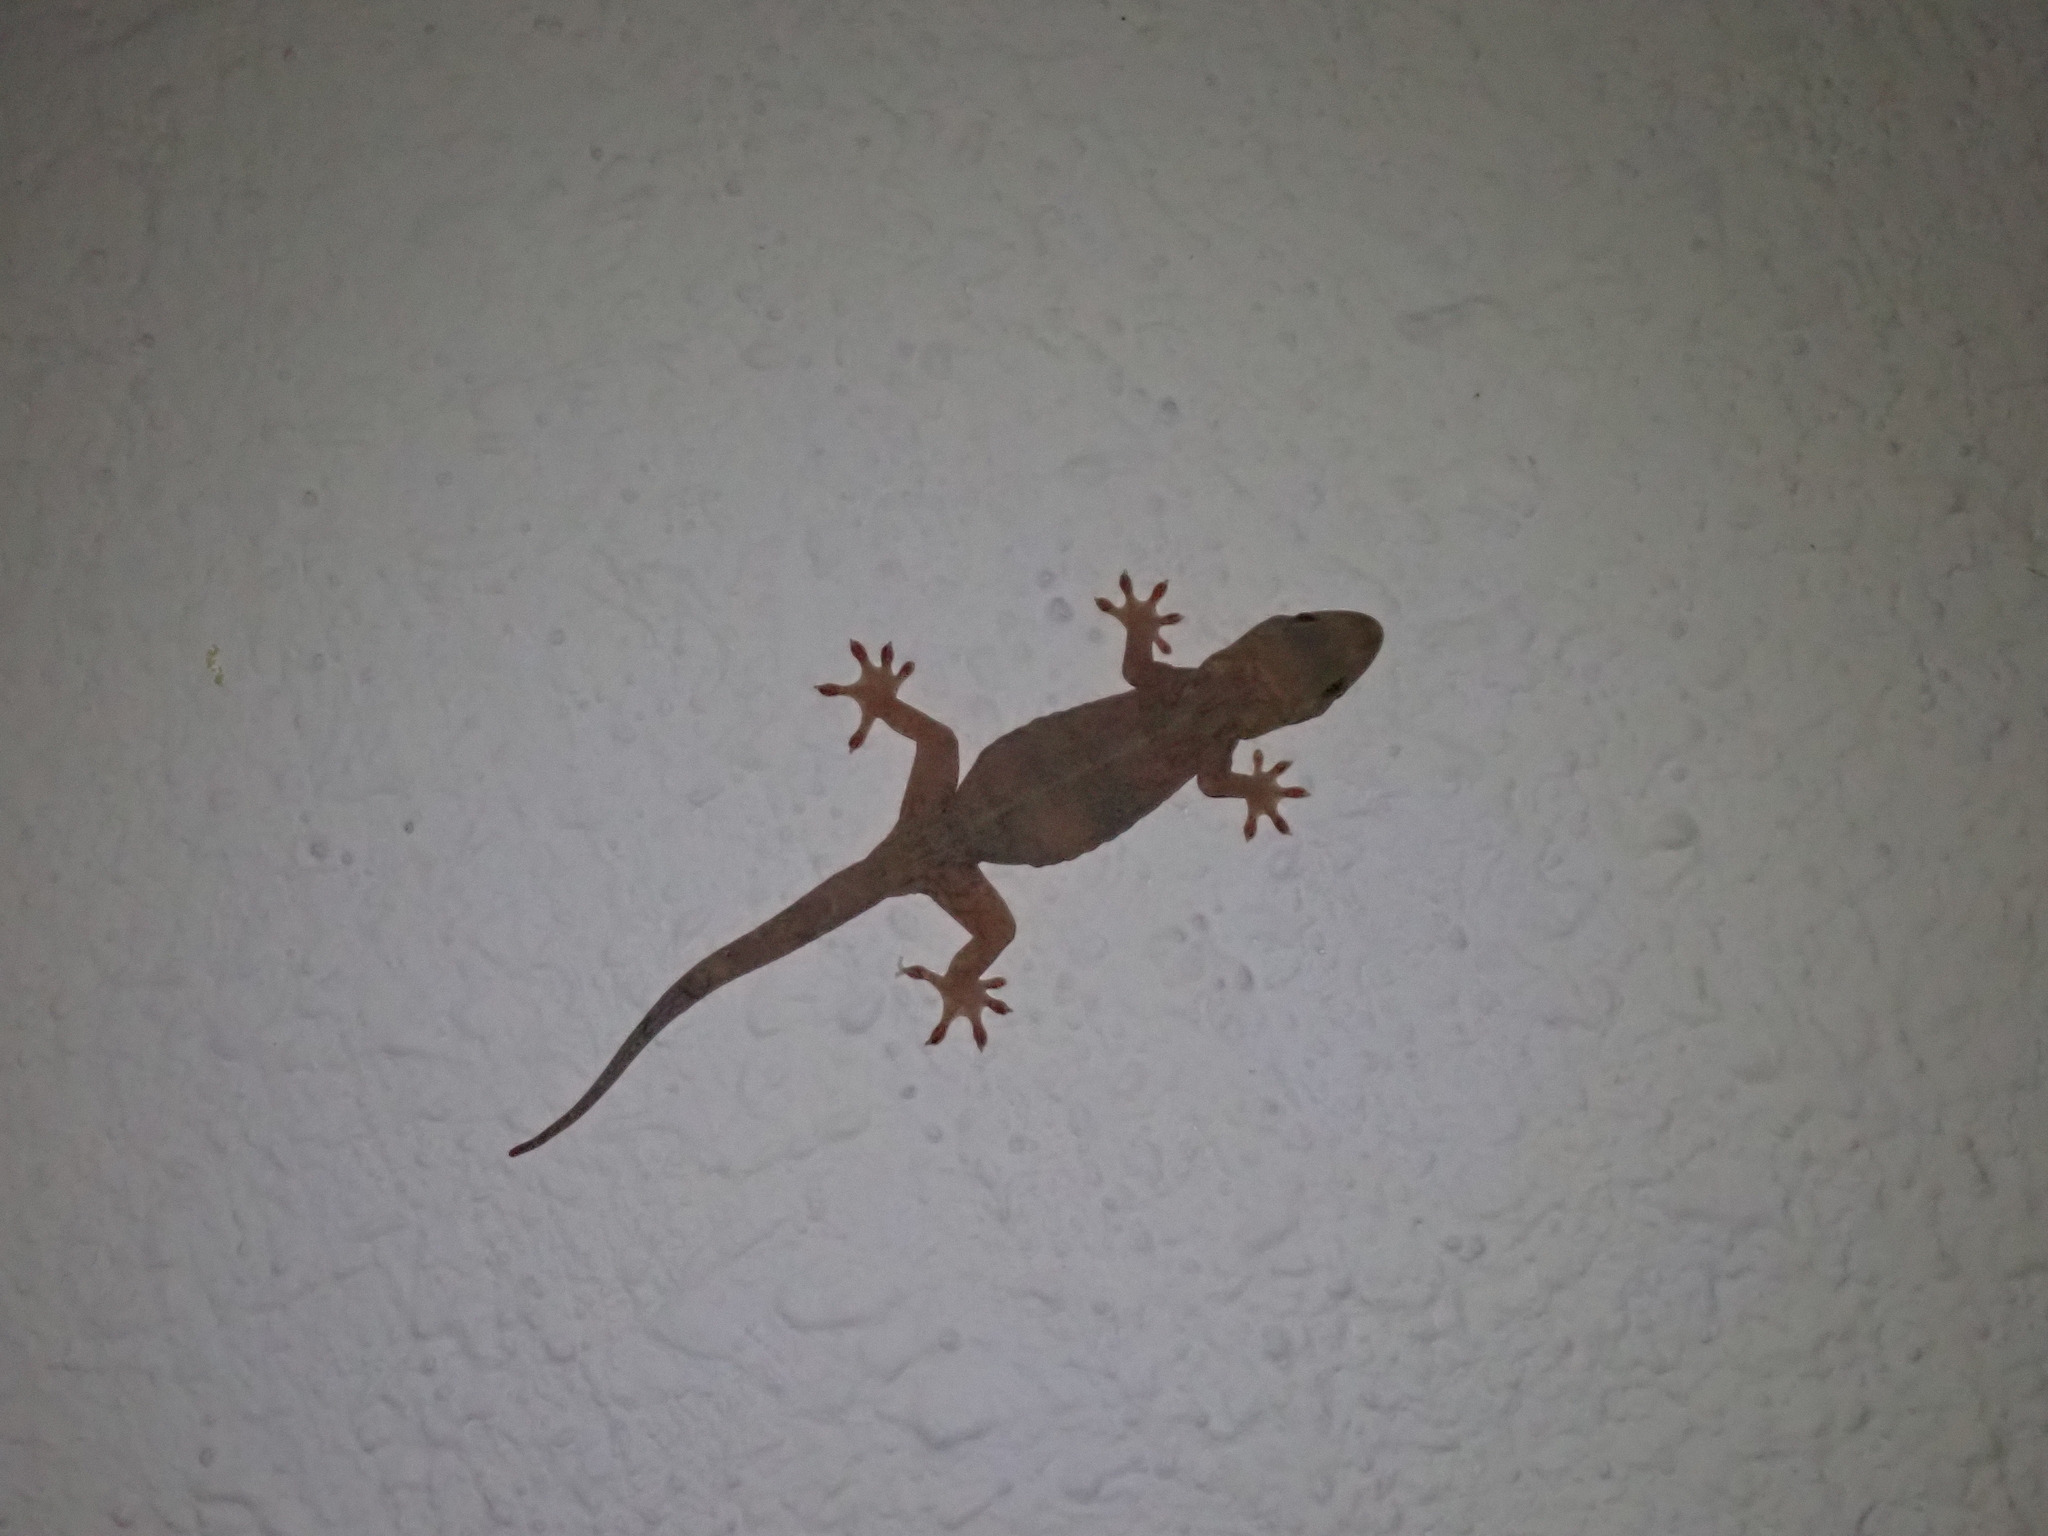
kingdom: Animalia
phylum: Chordata
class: Squamata
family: Gekkonidae
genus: Gekko
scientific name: Gekko chinensis
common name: Gray's chinese gecko
